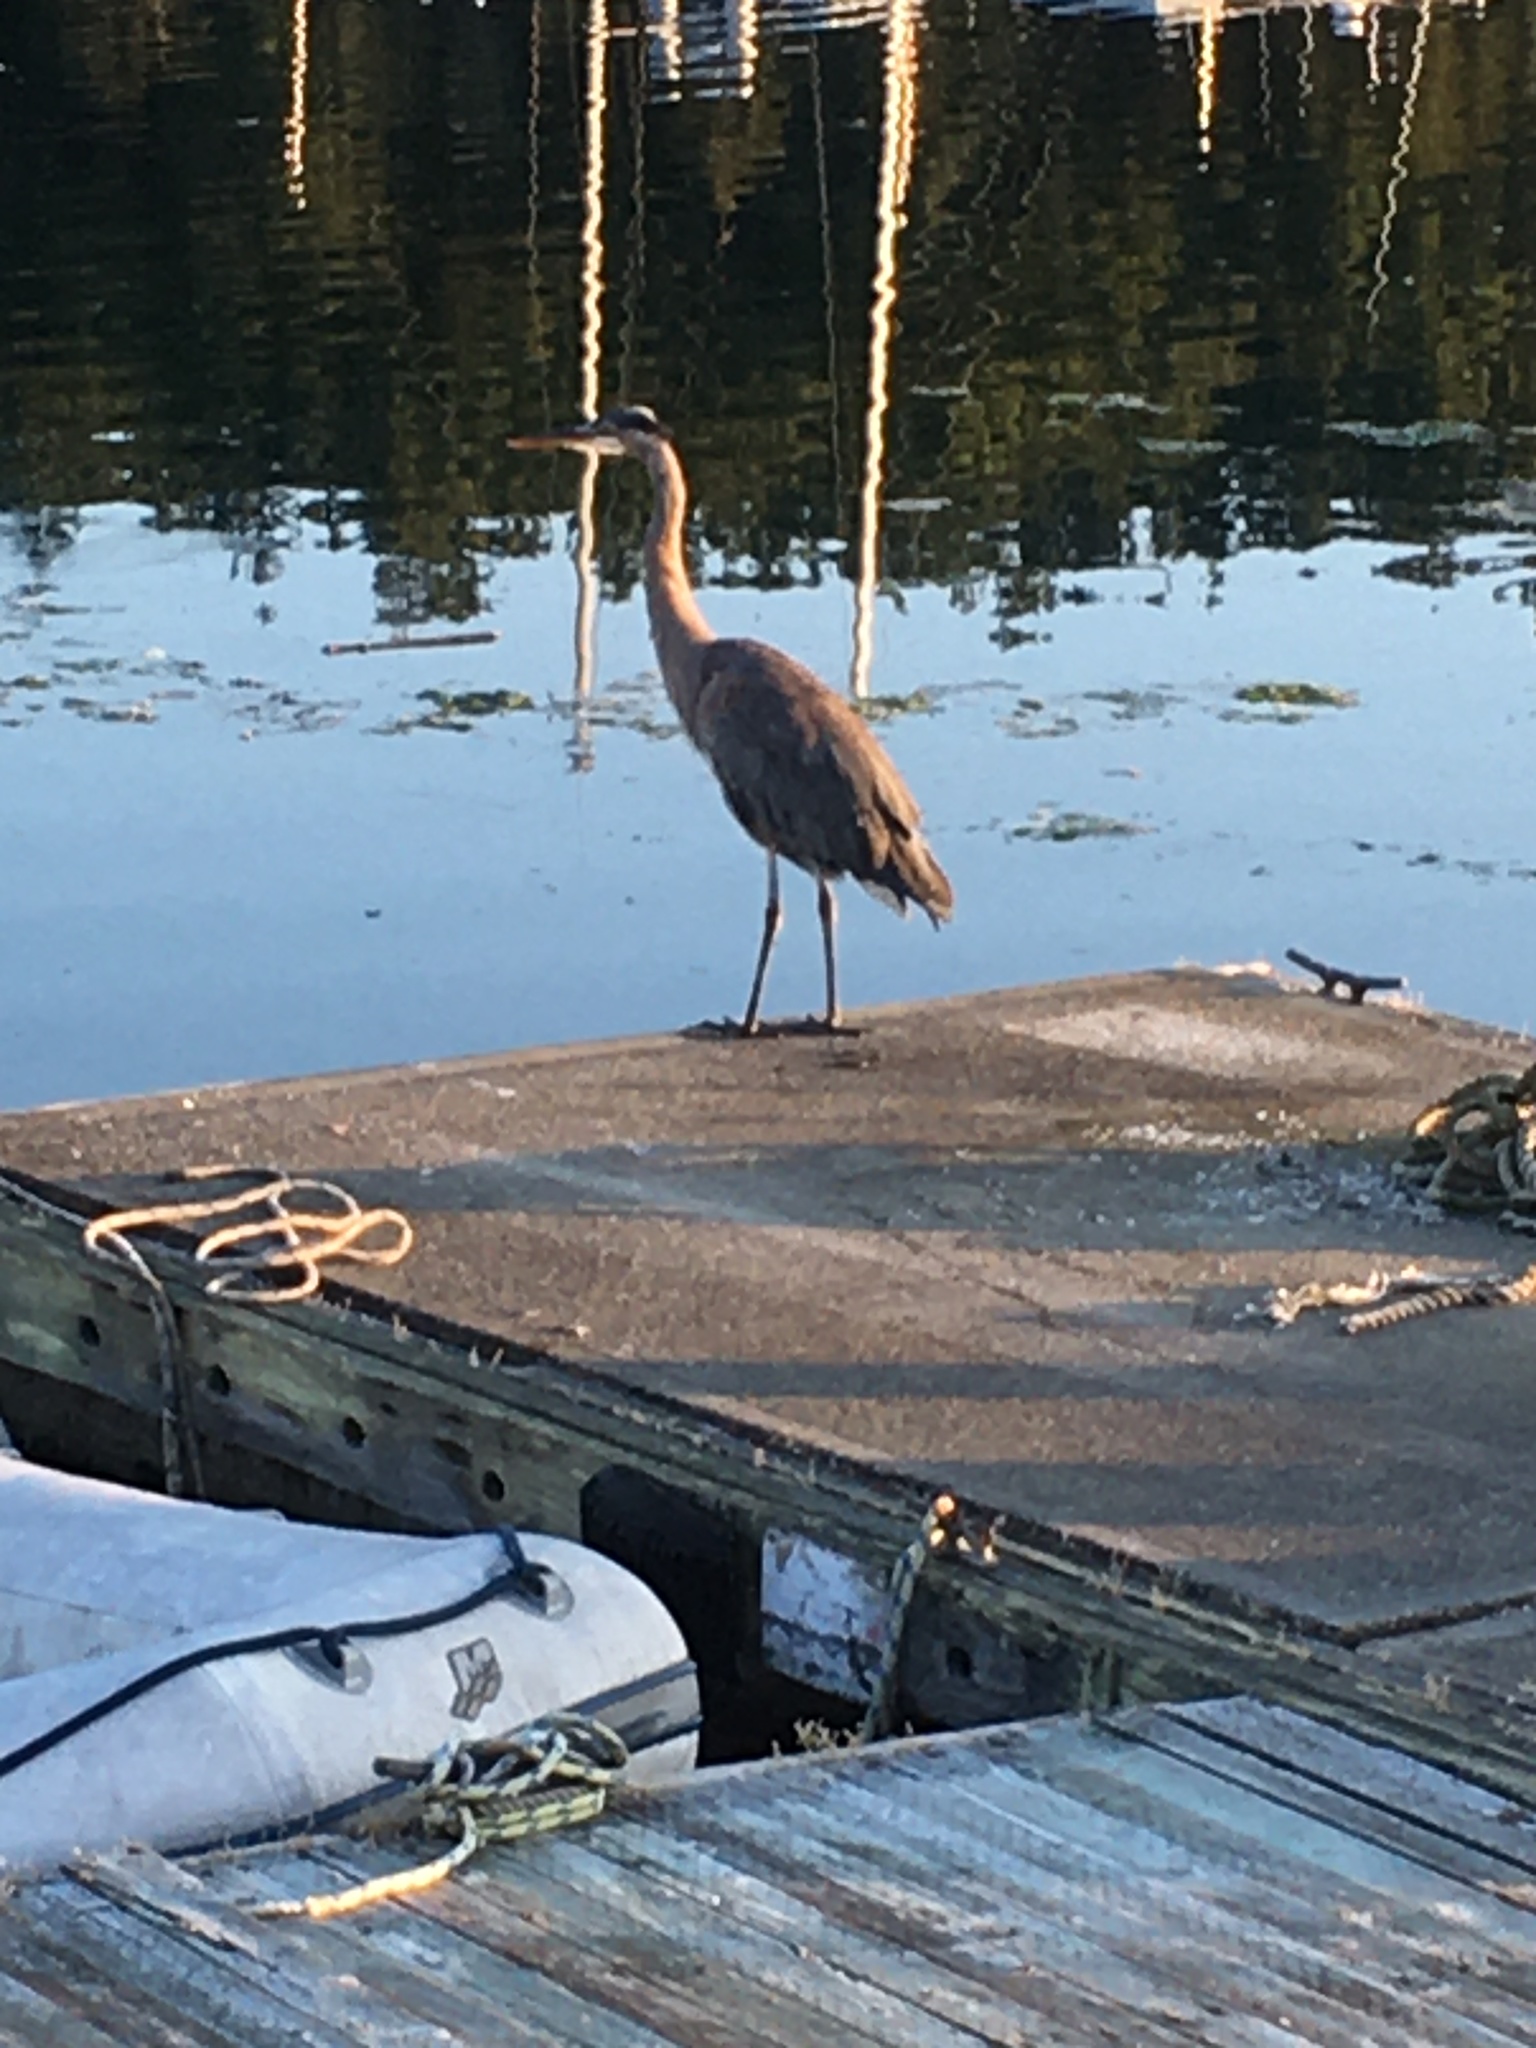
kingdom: Animalia
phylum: Chordata
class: Aves
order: Pelecaniformes
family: Ardeidae
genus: Ardea
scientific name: Ardea herodias
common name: Great blue heron
